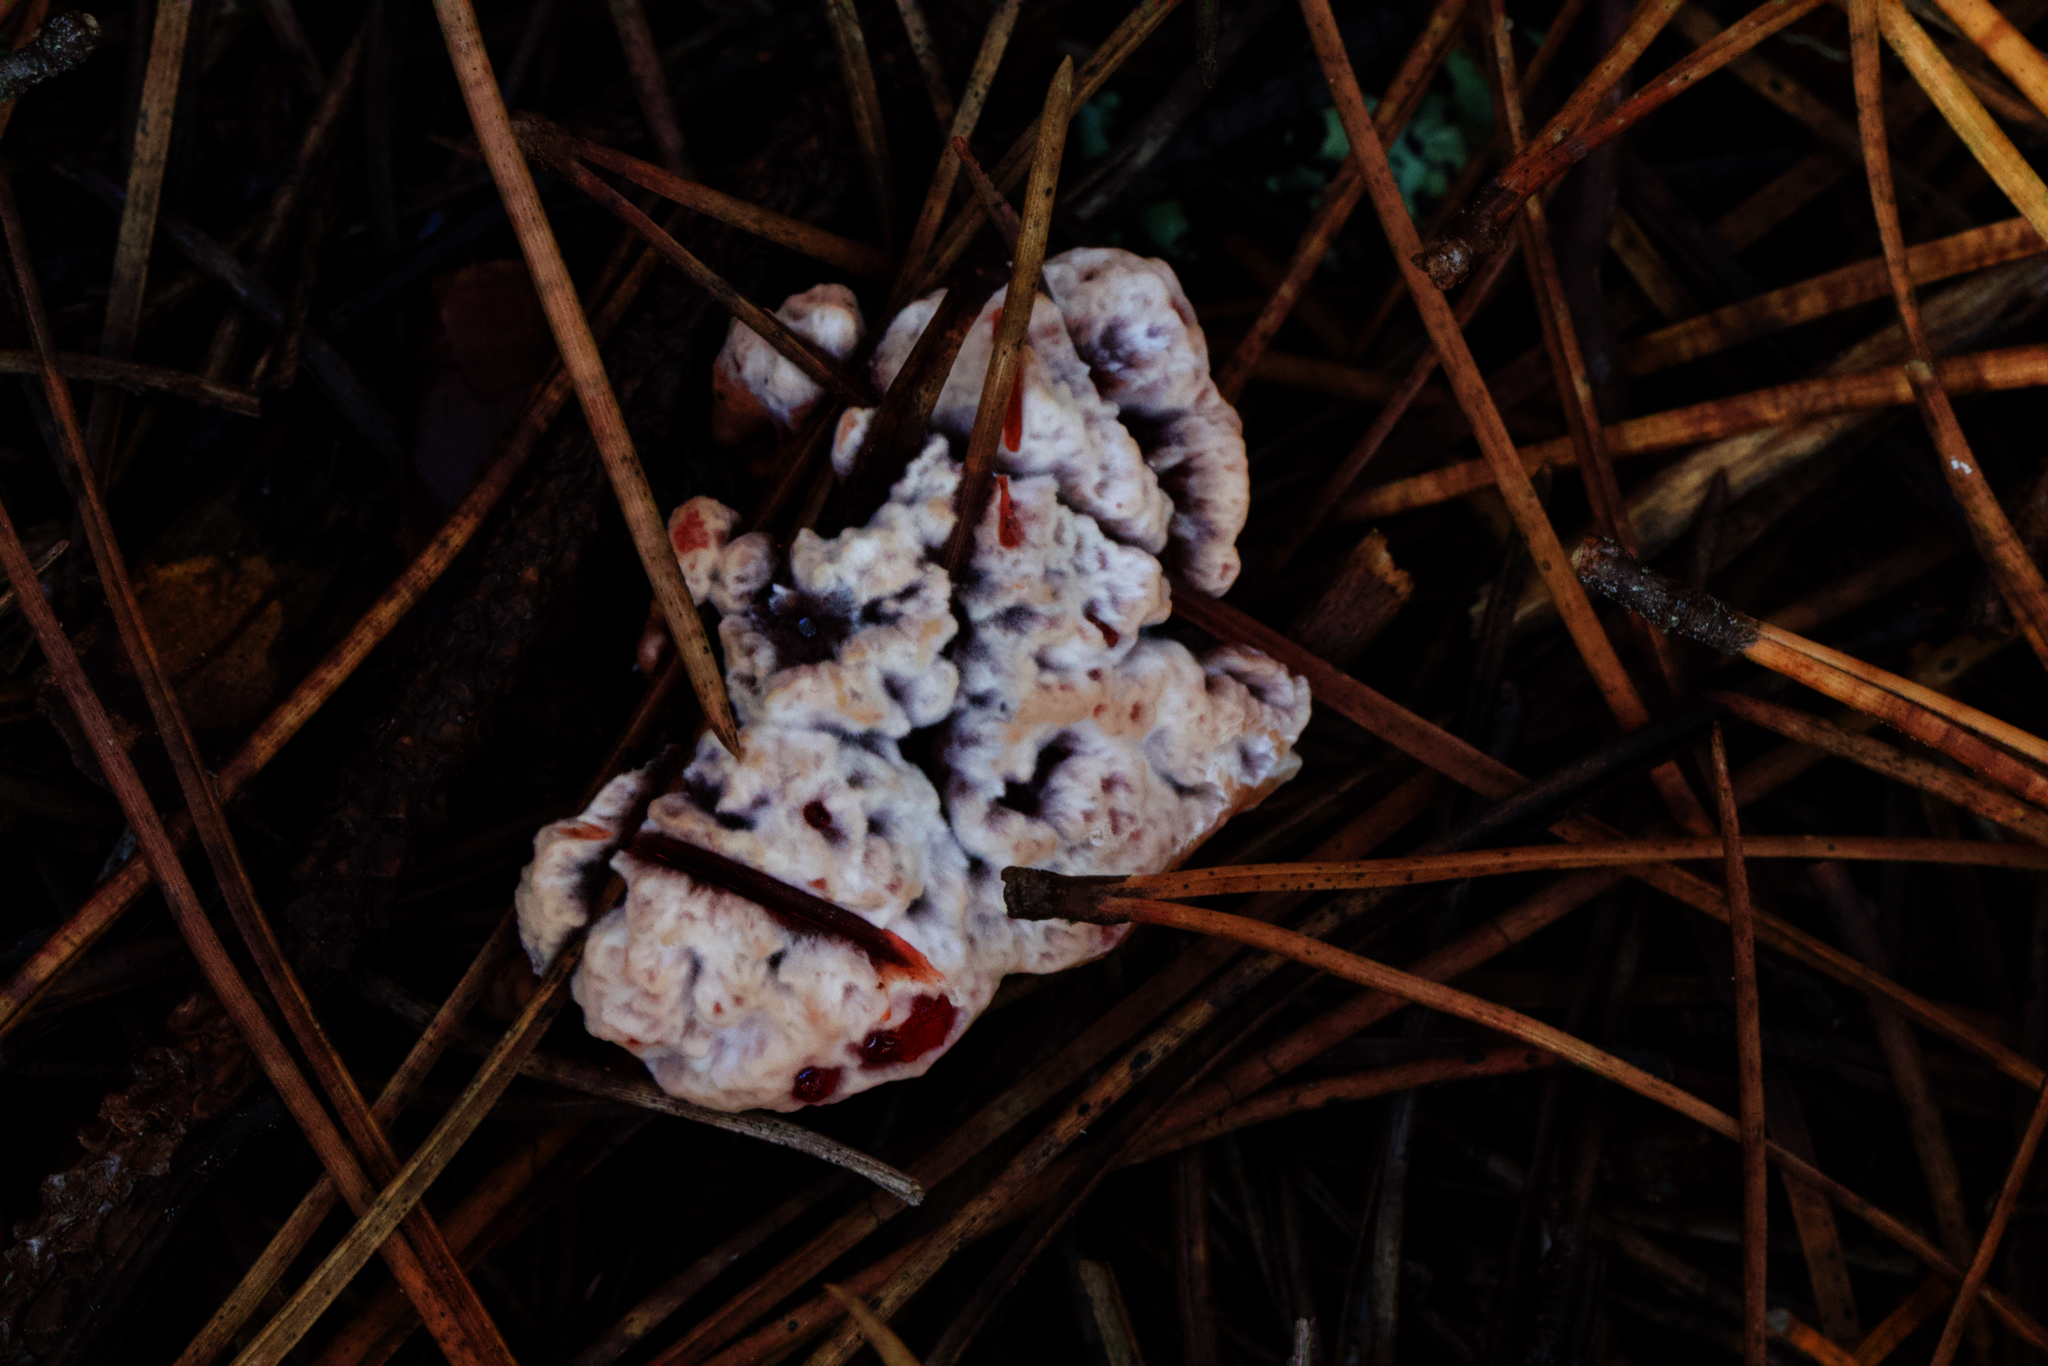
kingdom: Fungi
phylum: Basidiomycota
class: Agaricomycetes
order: Thelephorales
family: Bankeraceae
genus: Hydnellum
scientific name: Hydnellum peckii
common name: Devil's tooth
